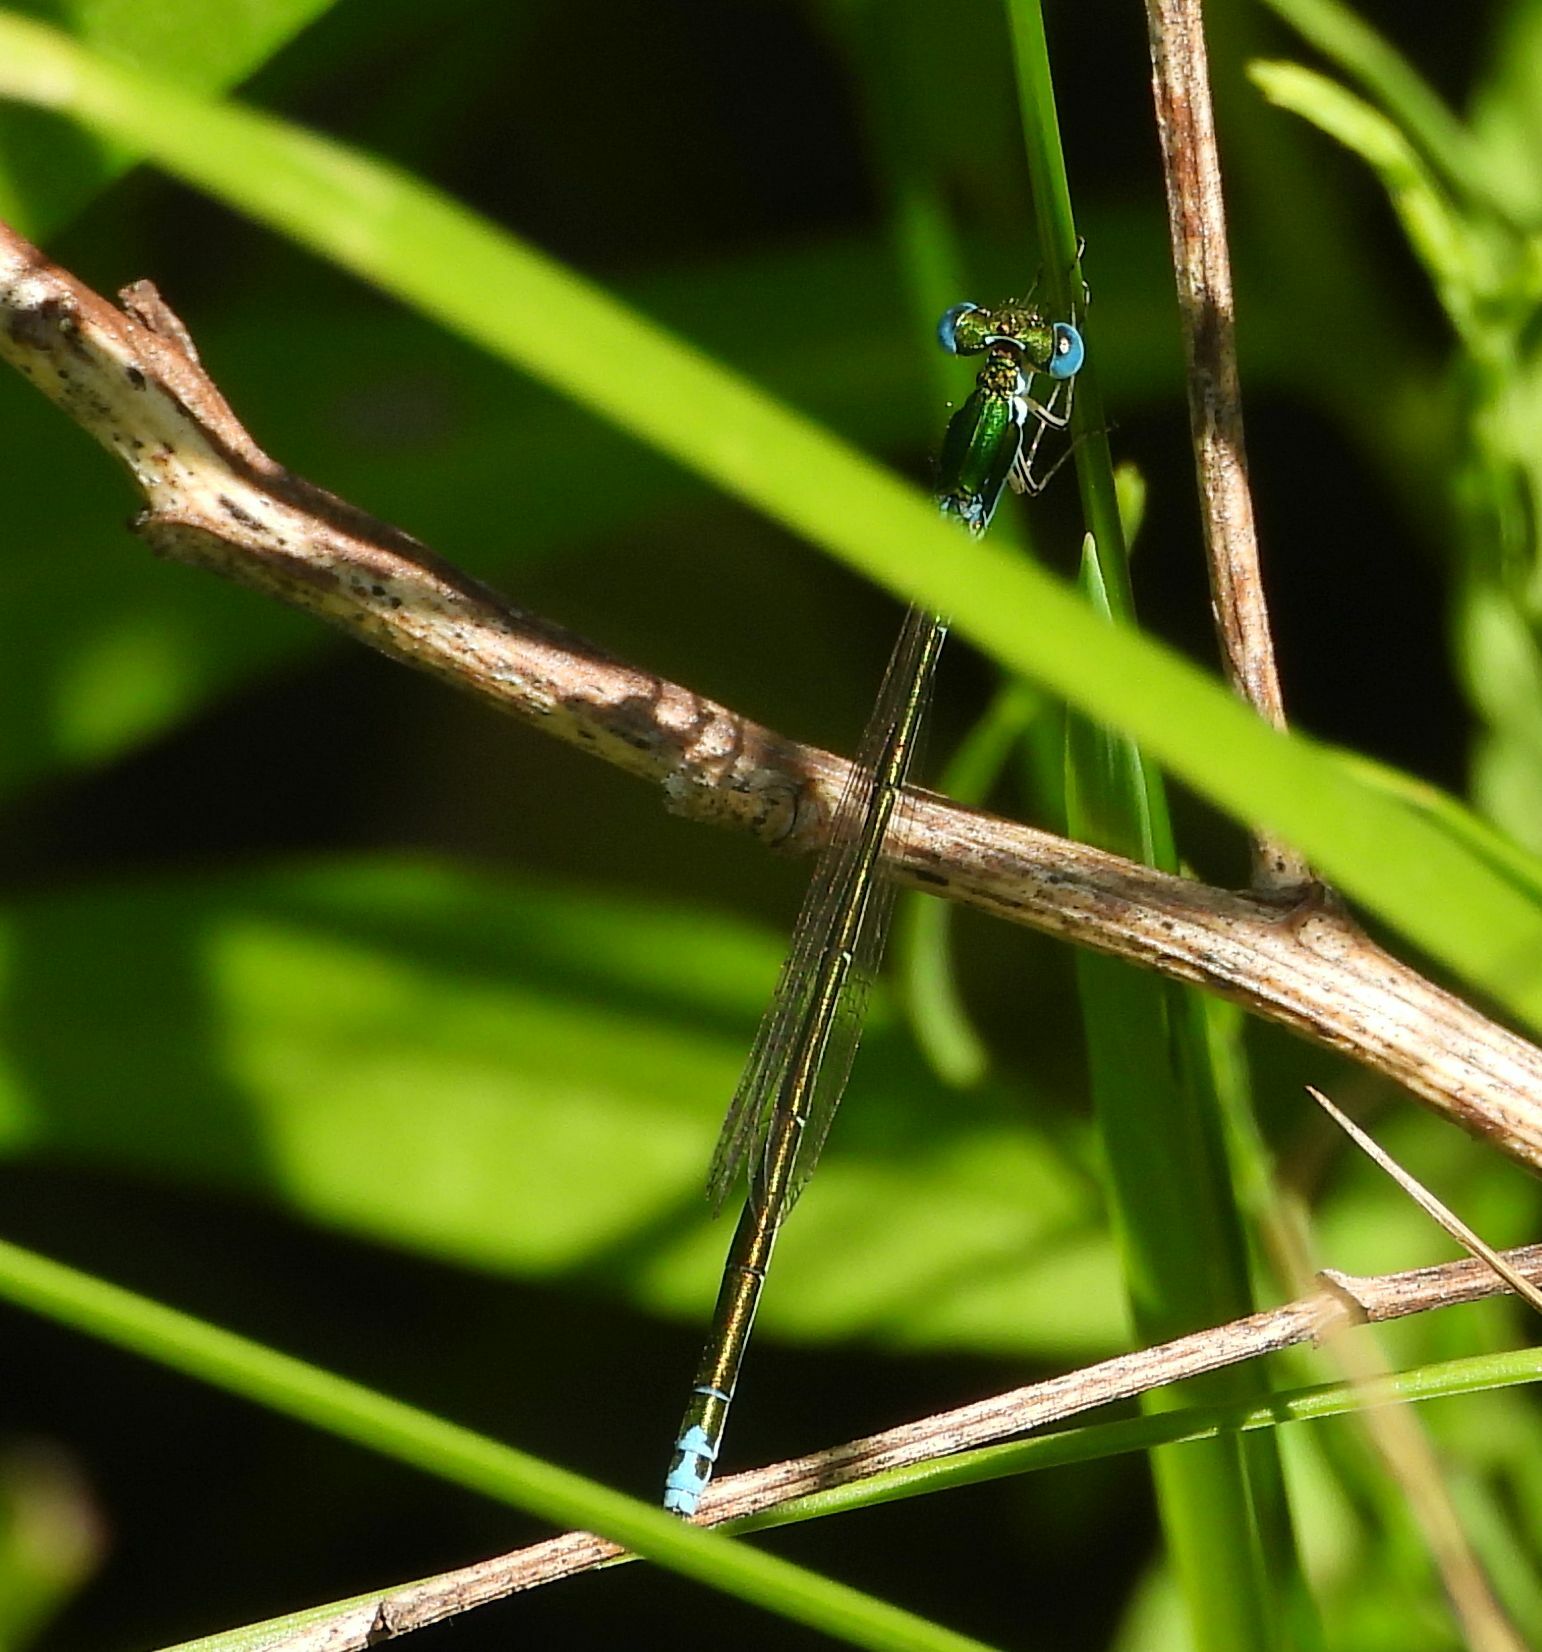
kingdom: Animalia
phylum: Arthropoda
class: Insecta
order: Odonata
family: Coenagrionidae
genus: Nehalennia
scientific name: Nehalennia irene
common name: Sedge sprite
